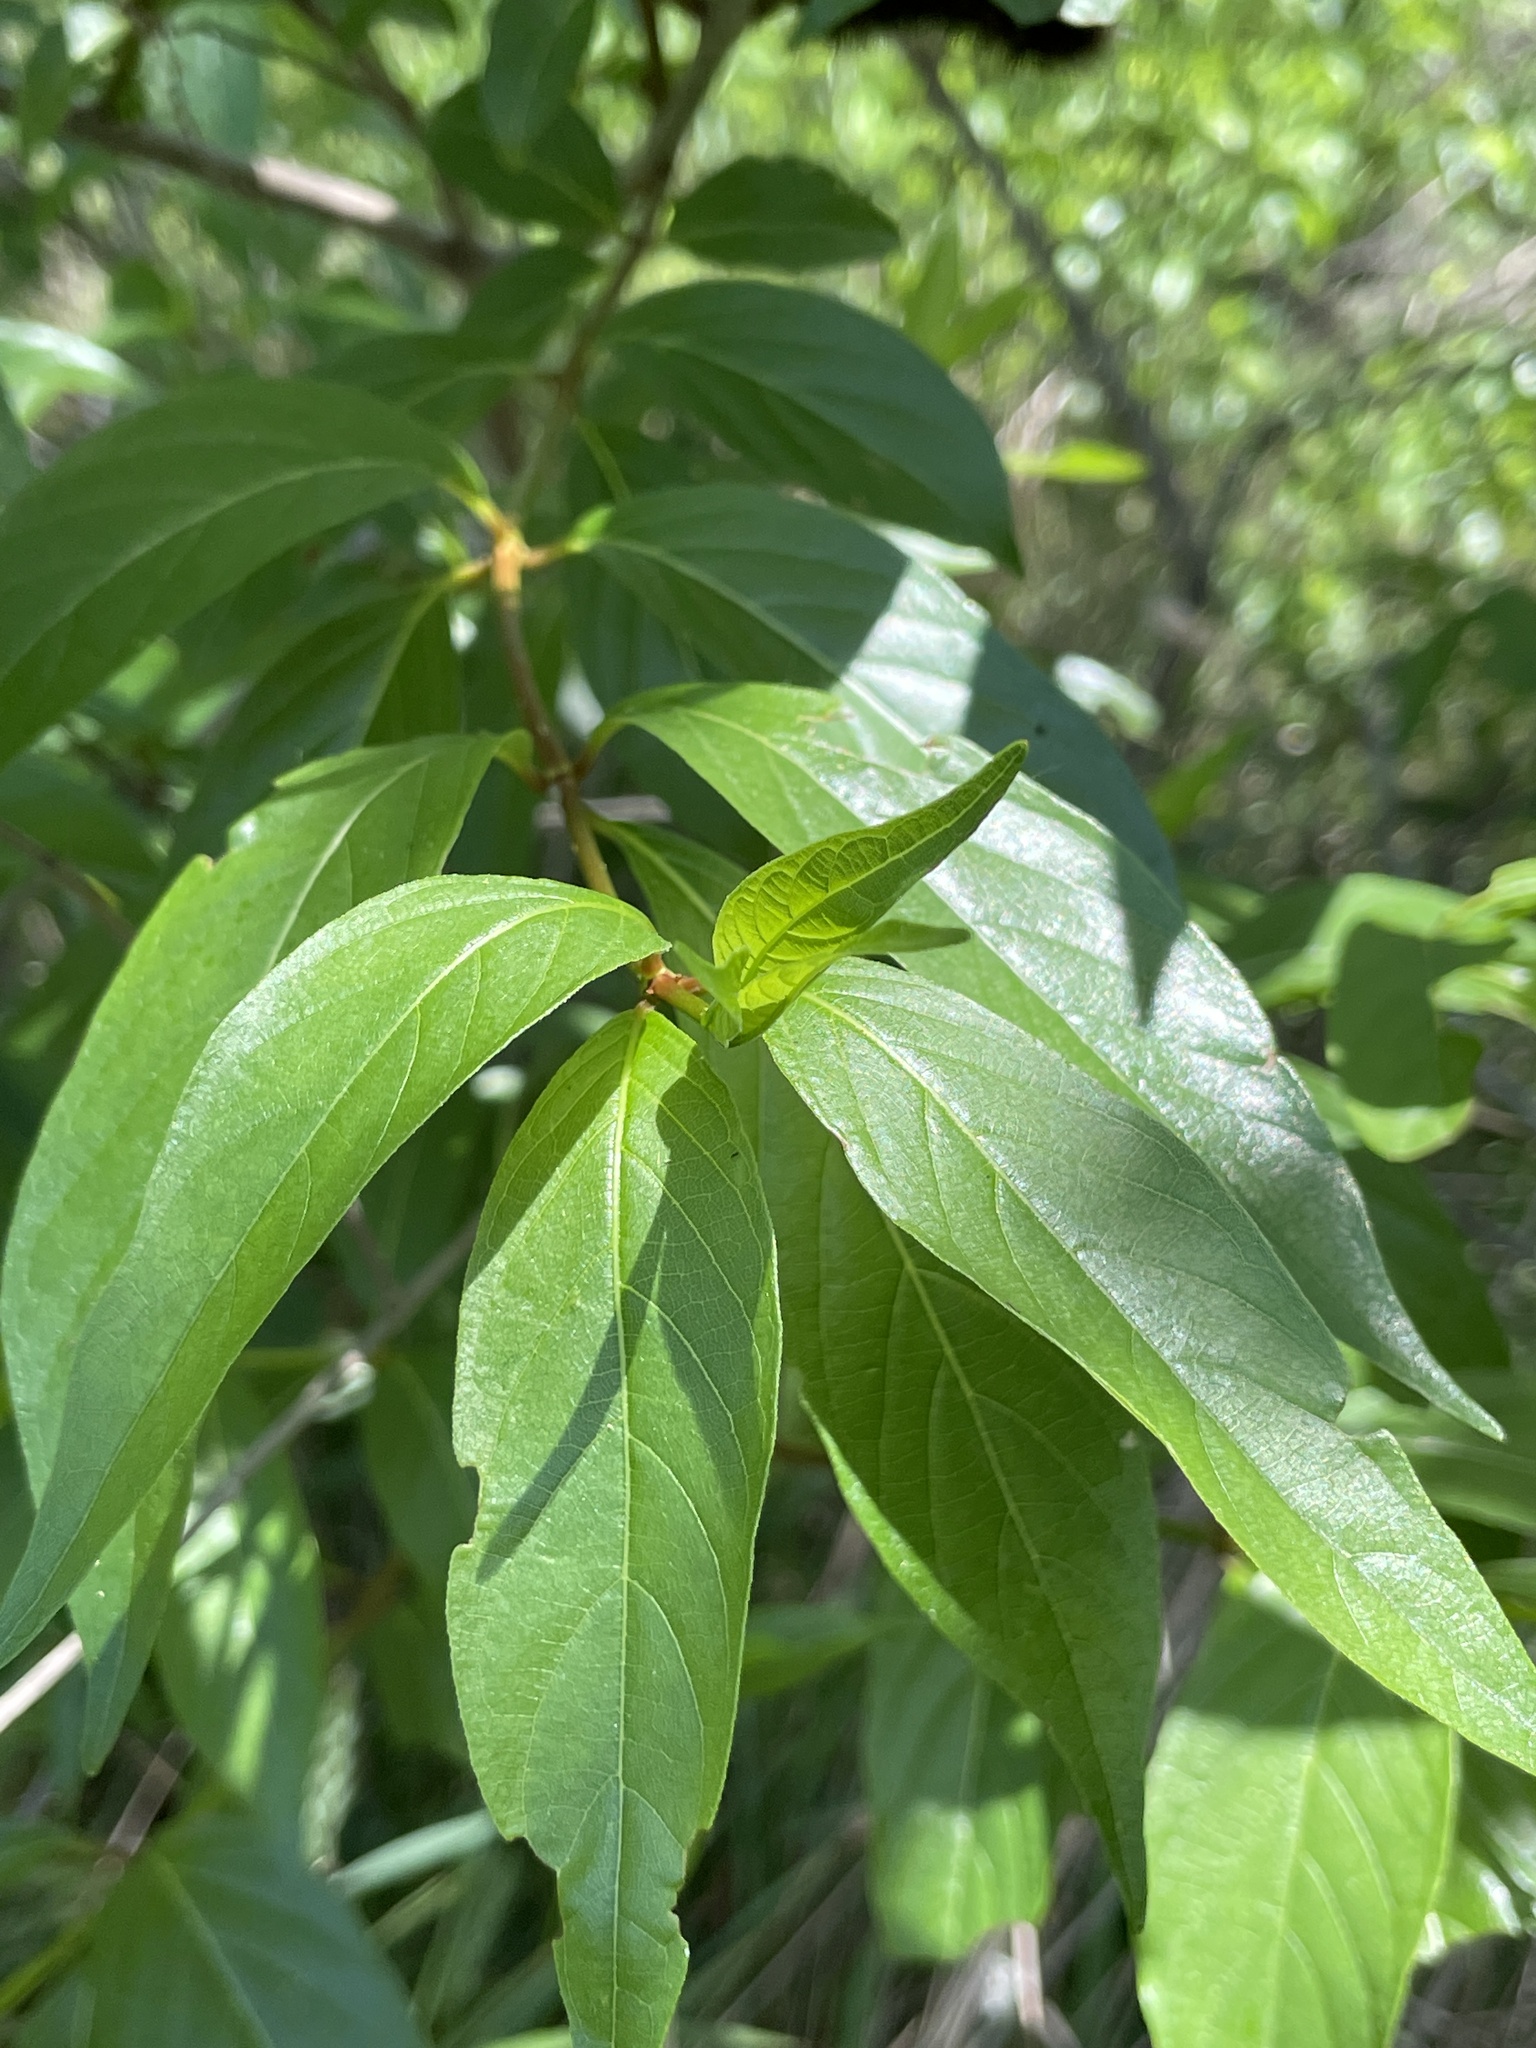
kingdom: Plantae
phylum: Tracheophyta
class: Magnoliopsida
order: Gentianales
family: Rubiaceae
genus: Cephalanthus
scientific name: Cephalanthus occidentalis
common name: Button-willow
